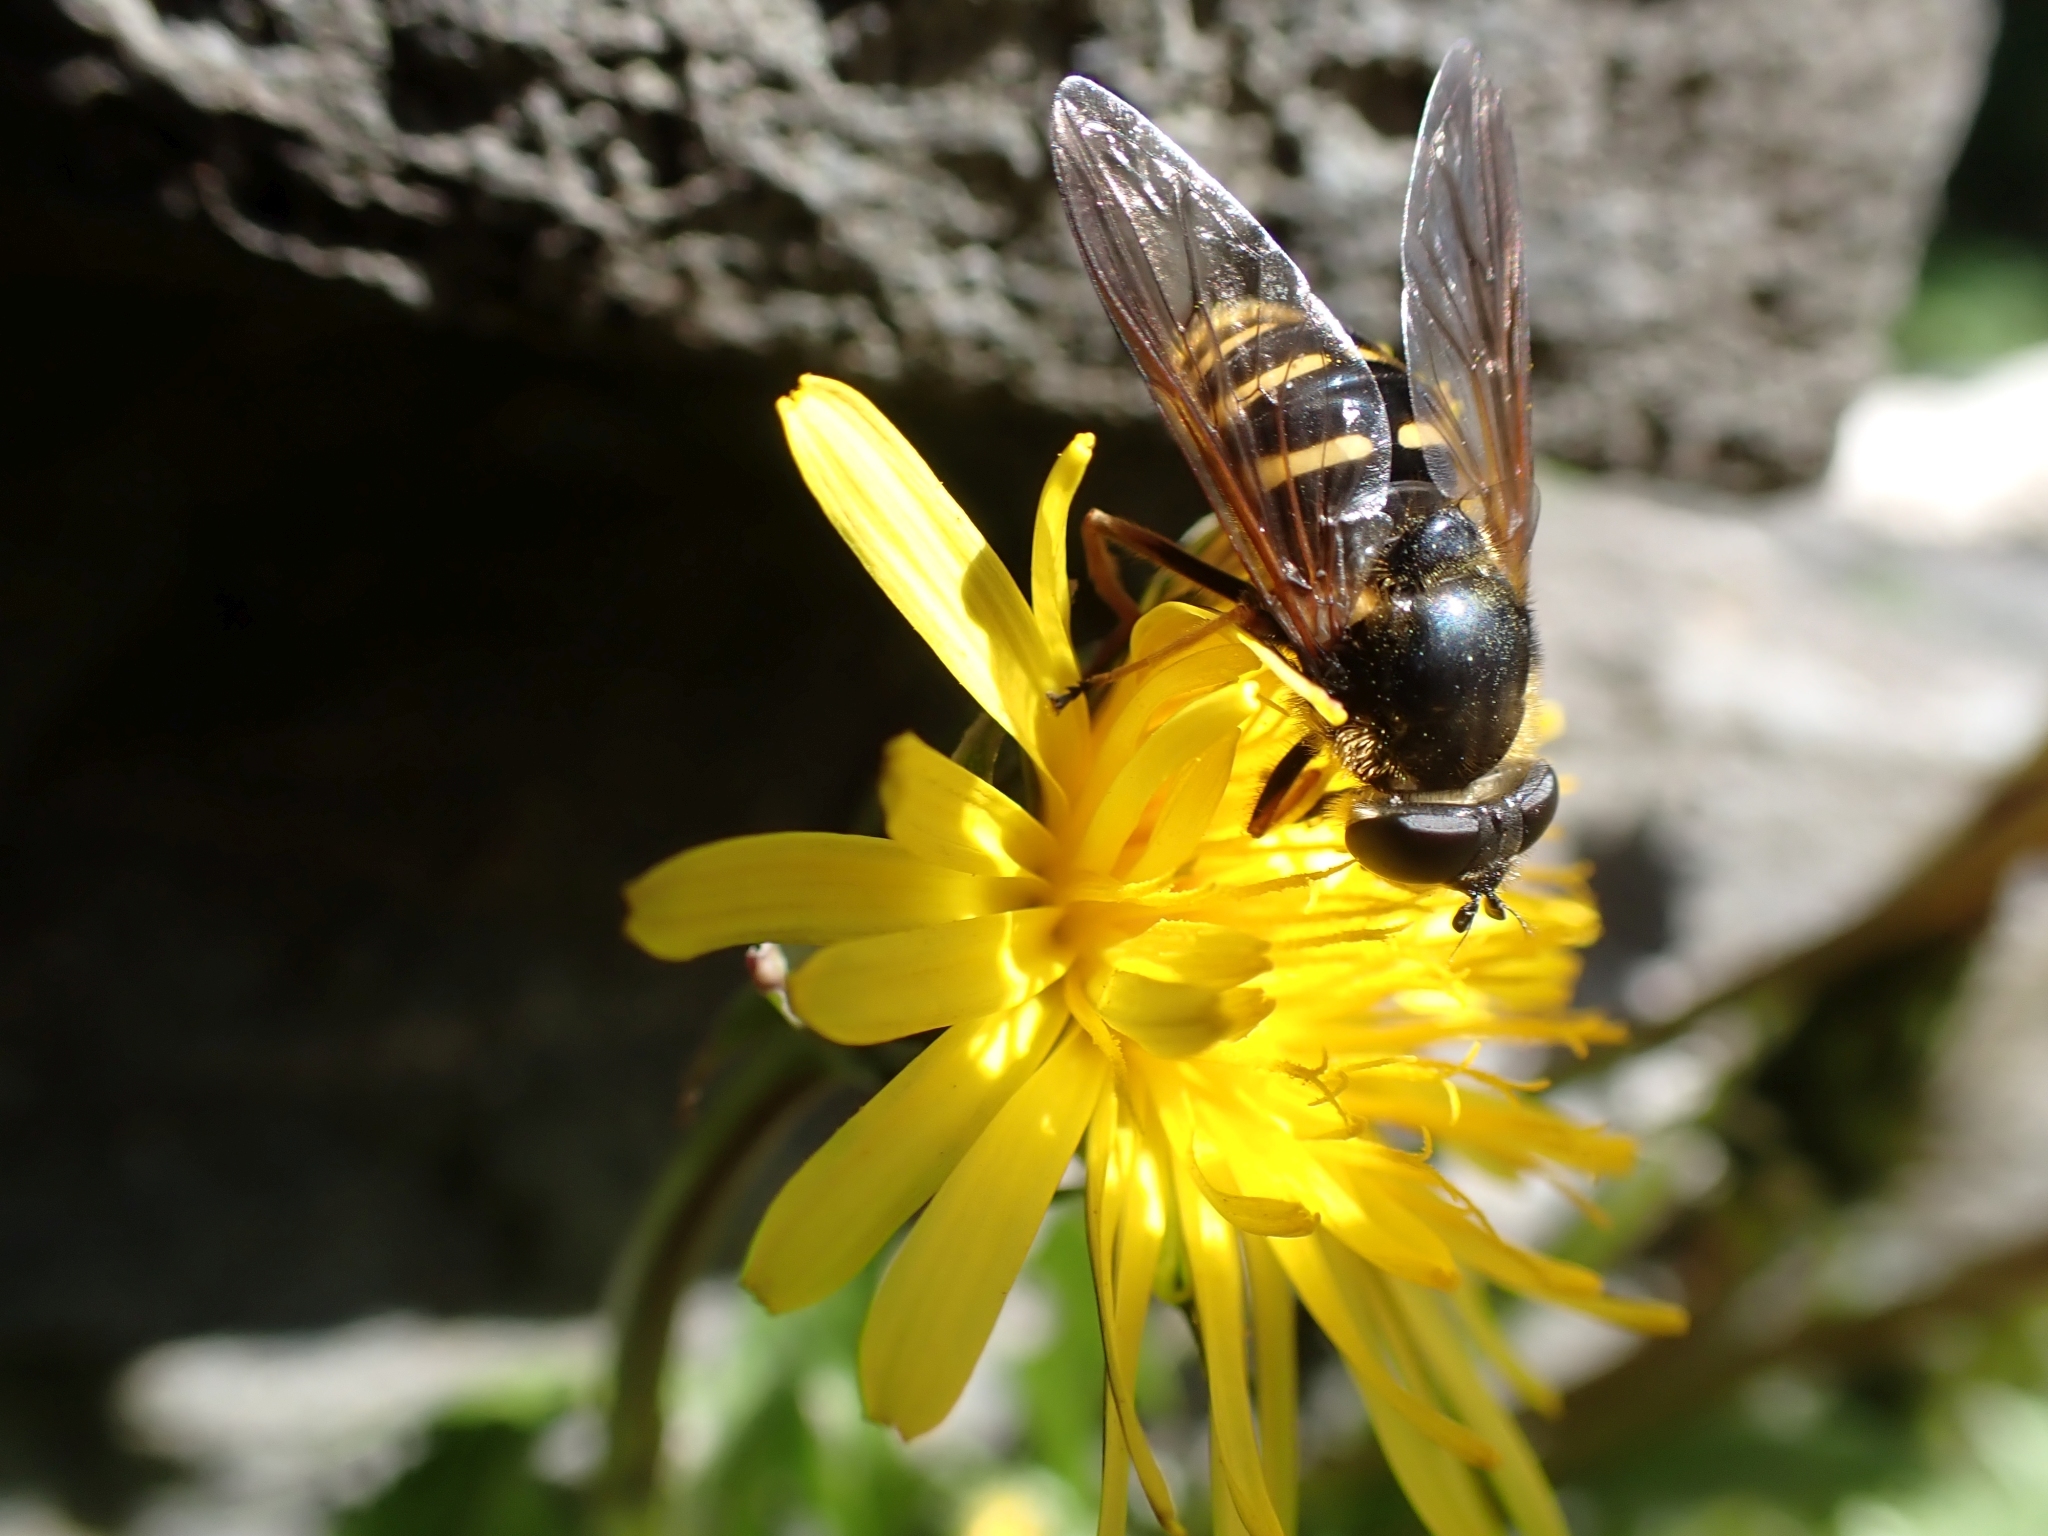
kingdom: Animalia
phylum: Arthropoda
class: Insecta
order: Diptera
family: Syrphidae
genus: Sericomyia
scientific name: Sericomyia chalcopyga
